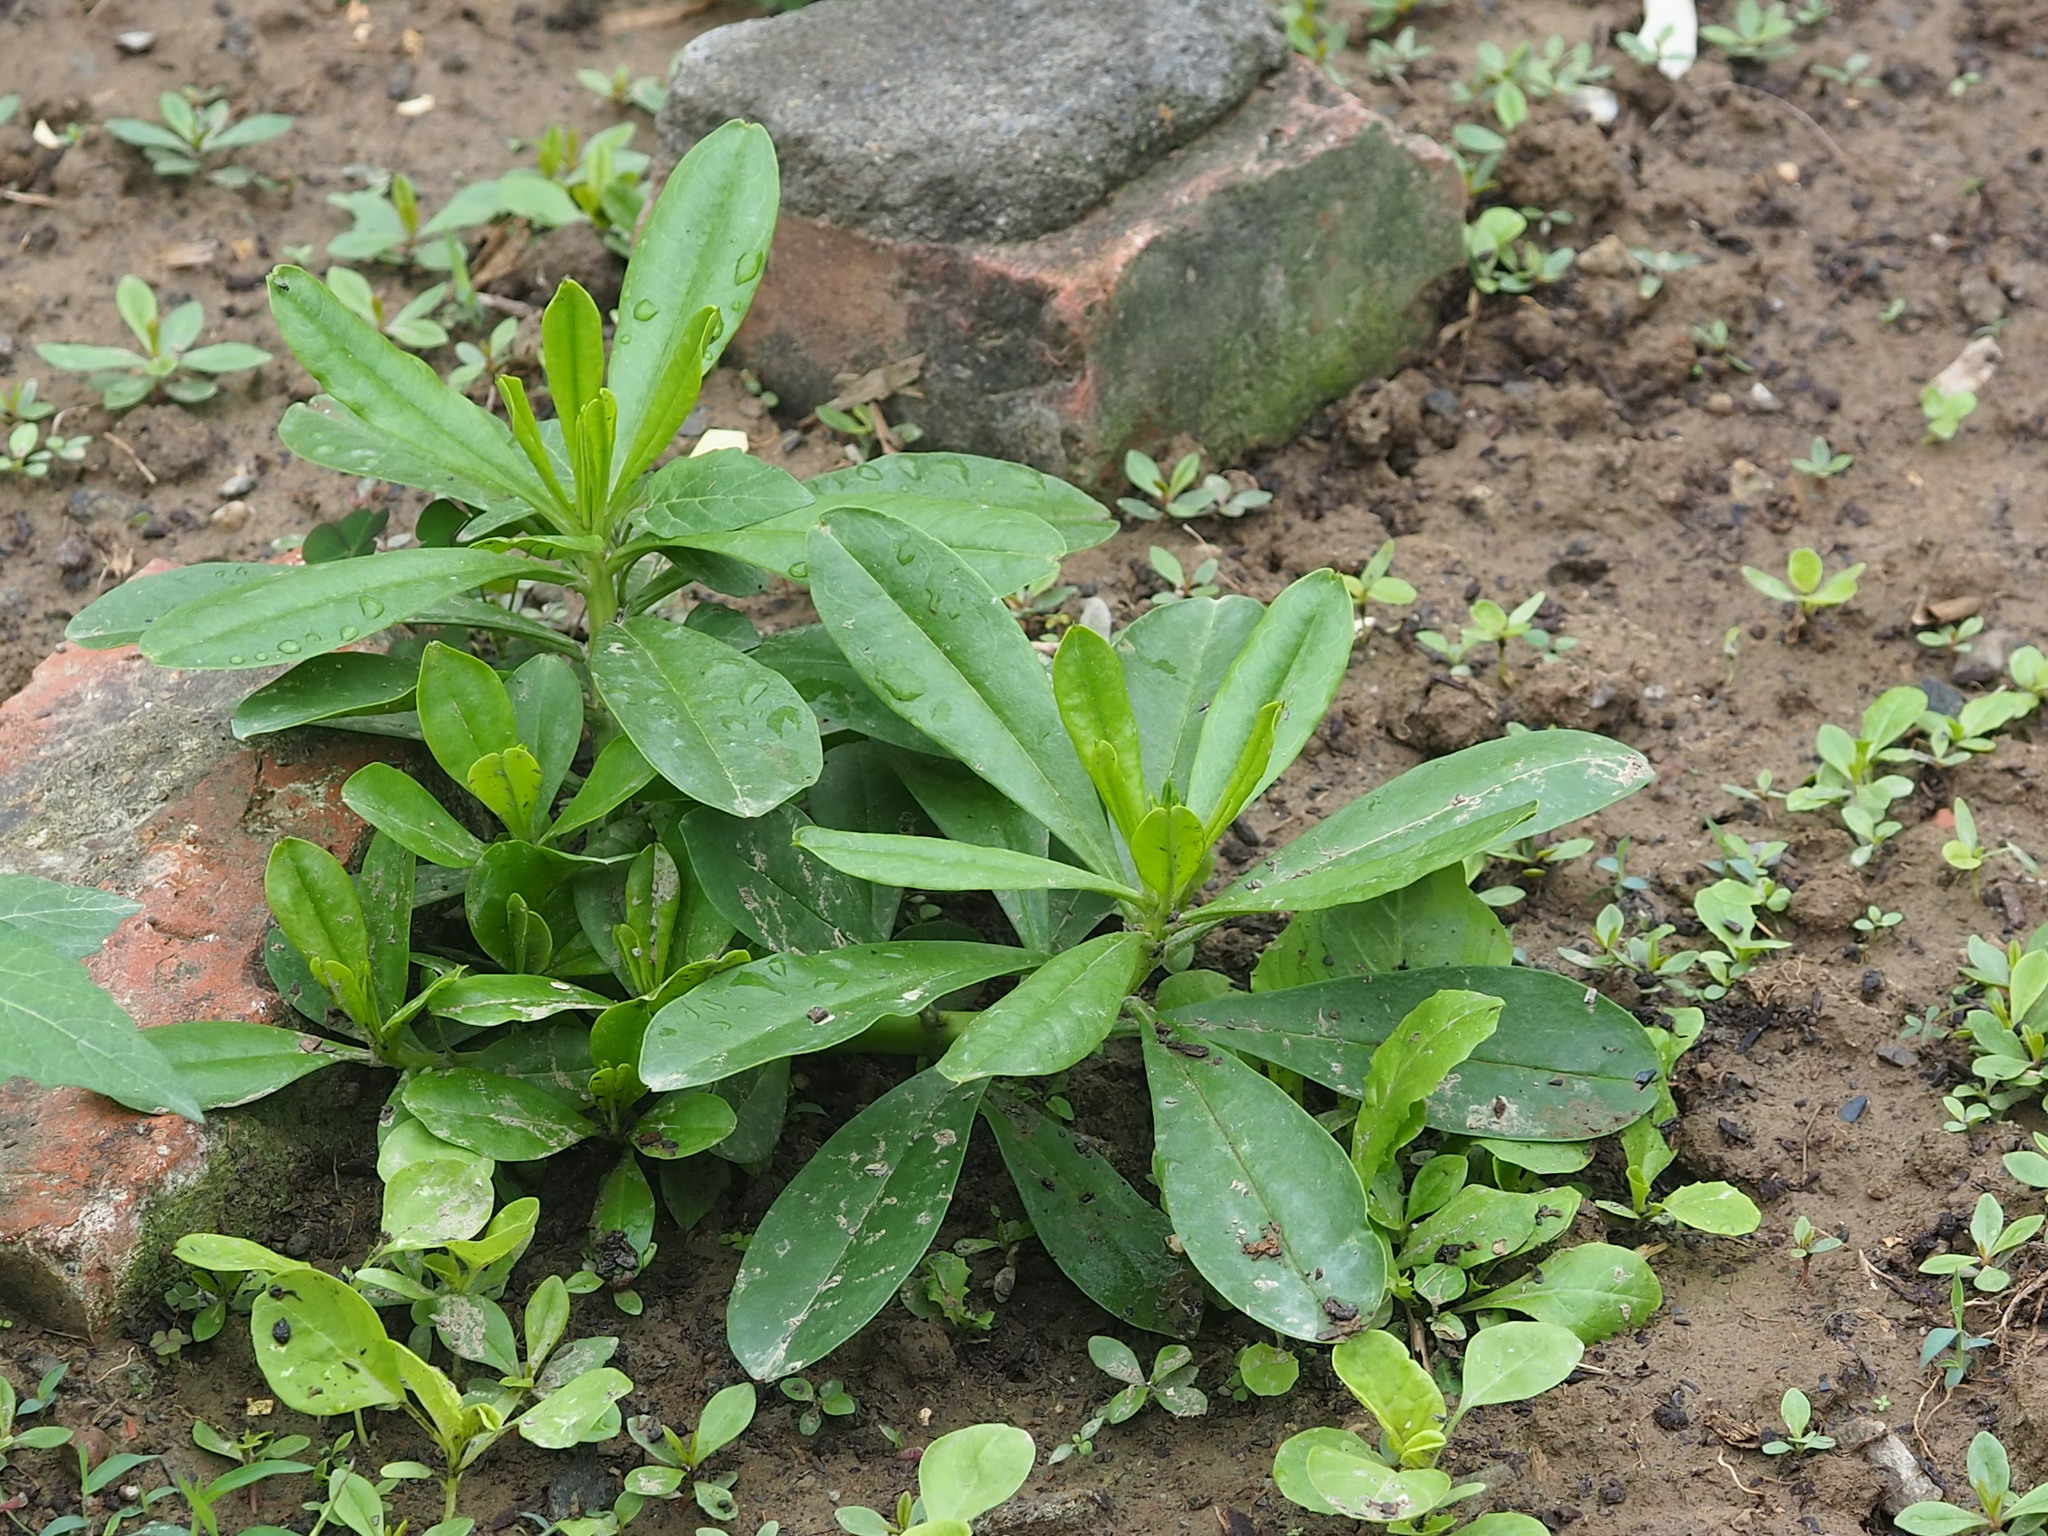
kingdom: Plantae
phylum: Tracheophyta
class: Magnoliopsida
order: Caryophyllales
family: Talinaceae
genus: Talinum
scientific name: Talinum fruticosum
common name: Verdolaga-francesa
